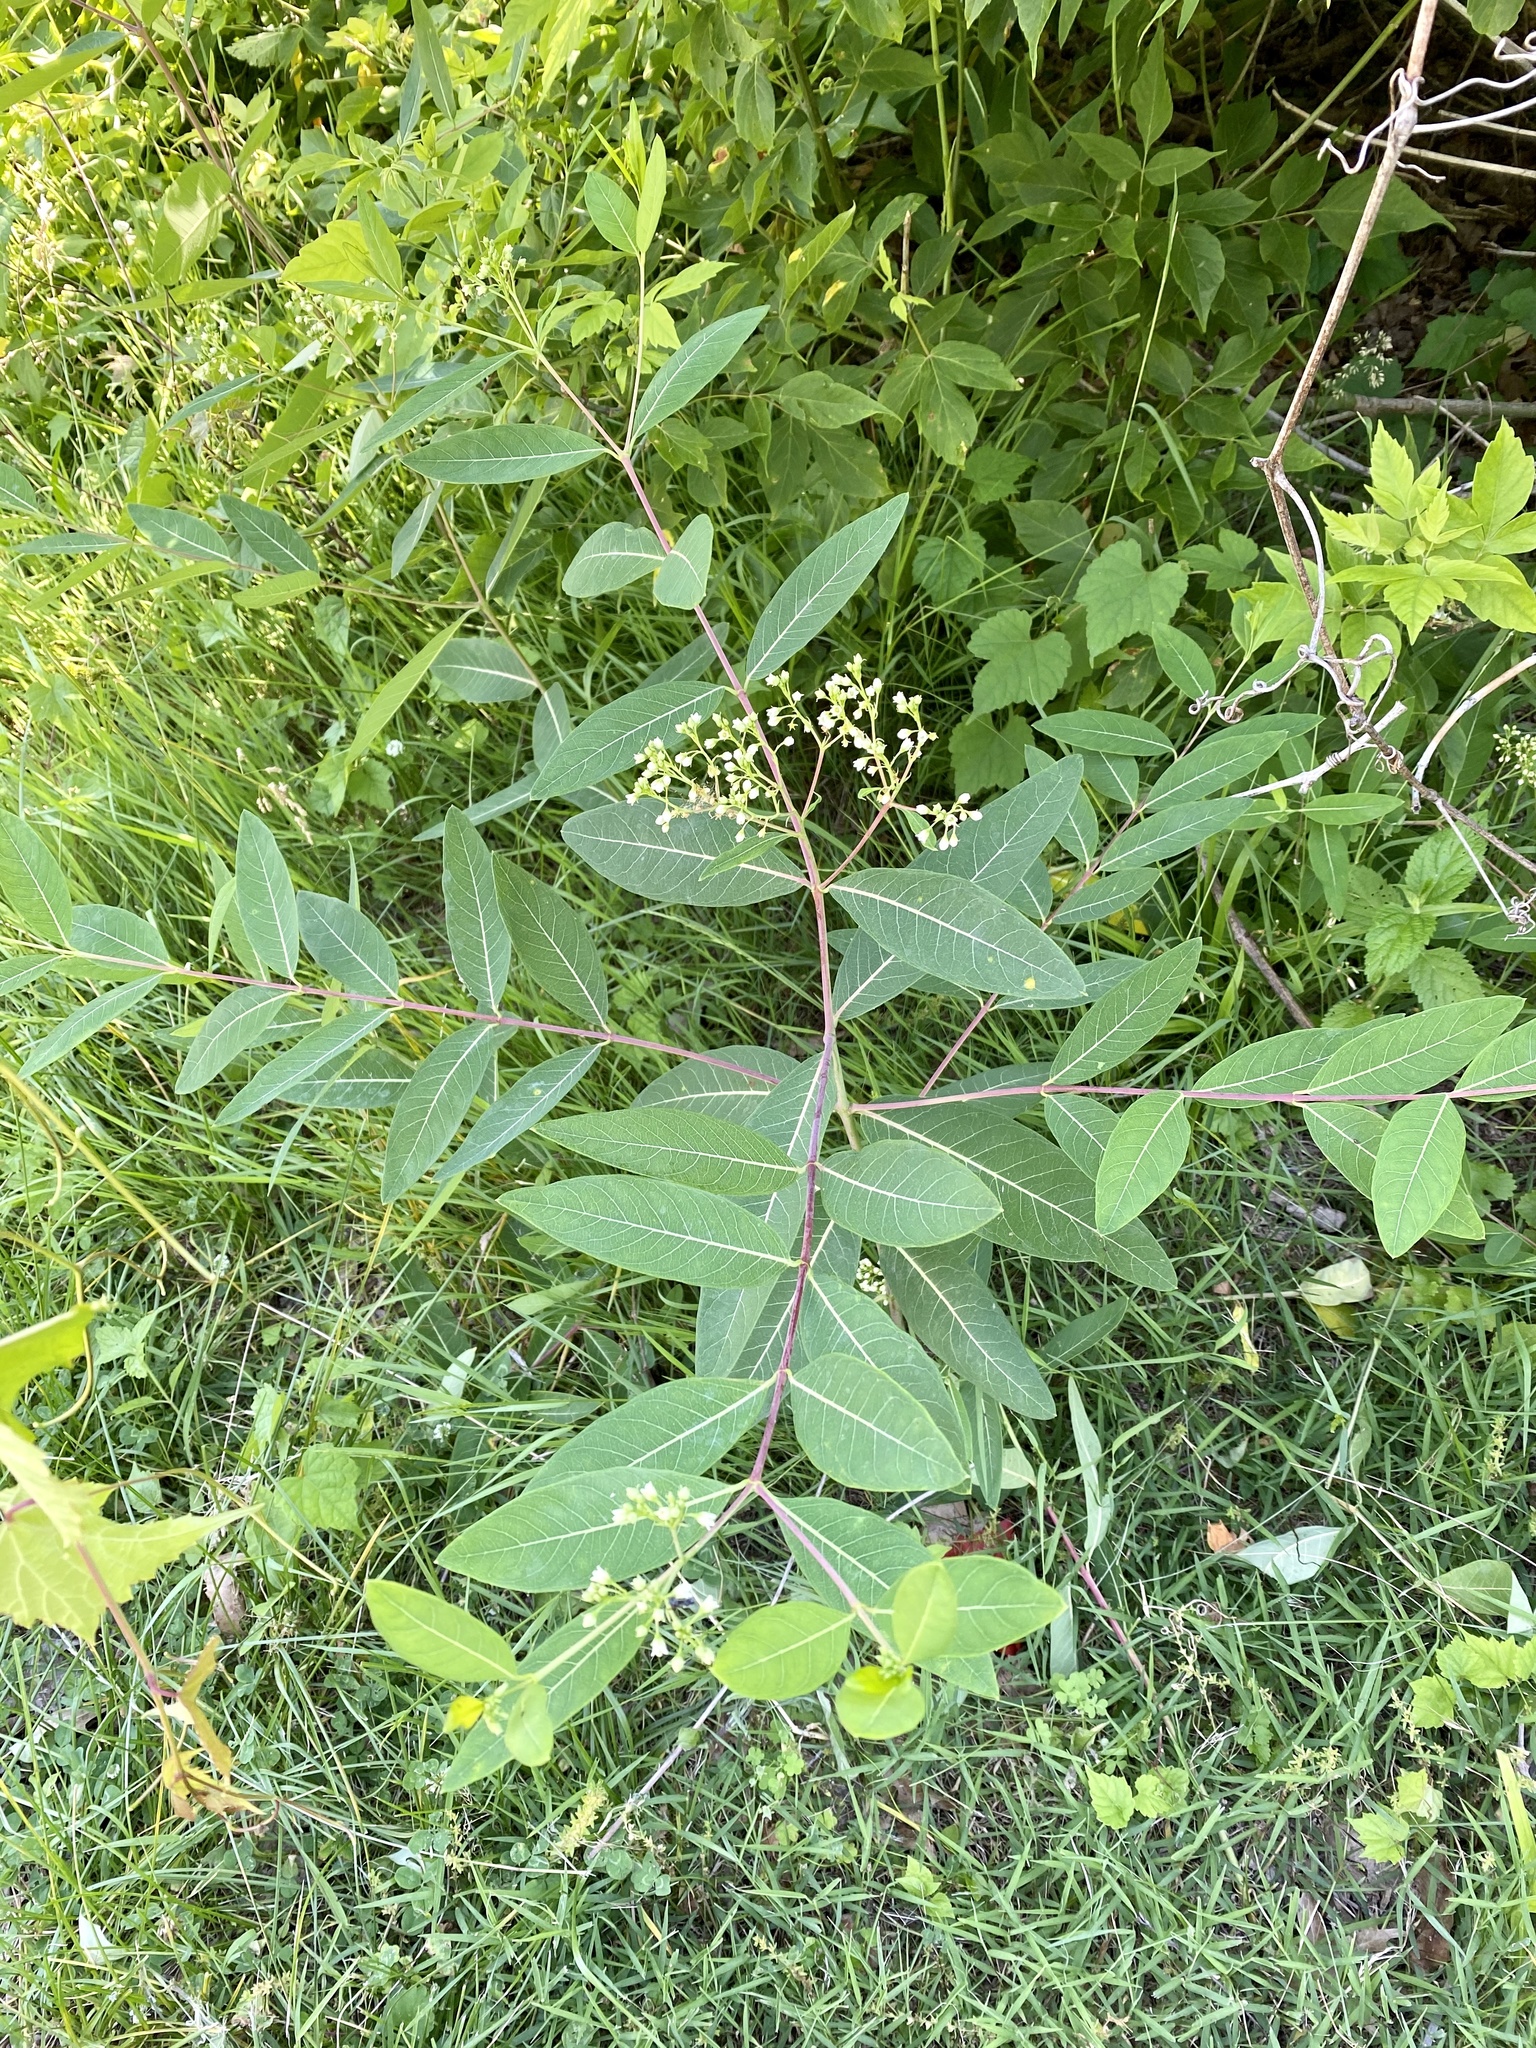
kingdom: Plantae
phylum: Tracheophyta
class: Magnoliopsida
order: Gentianales
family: Apocynaceae
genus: Apocynum
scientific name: Apocynum cannabinum
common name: Hemp dogbane
